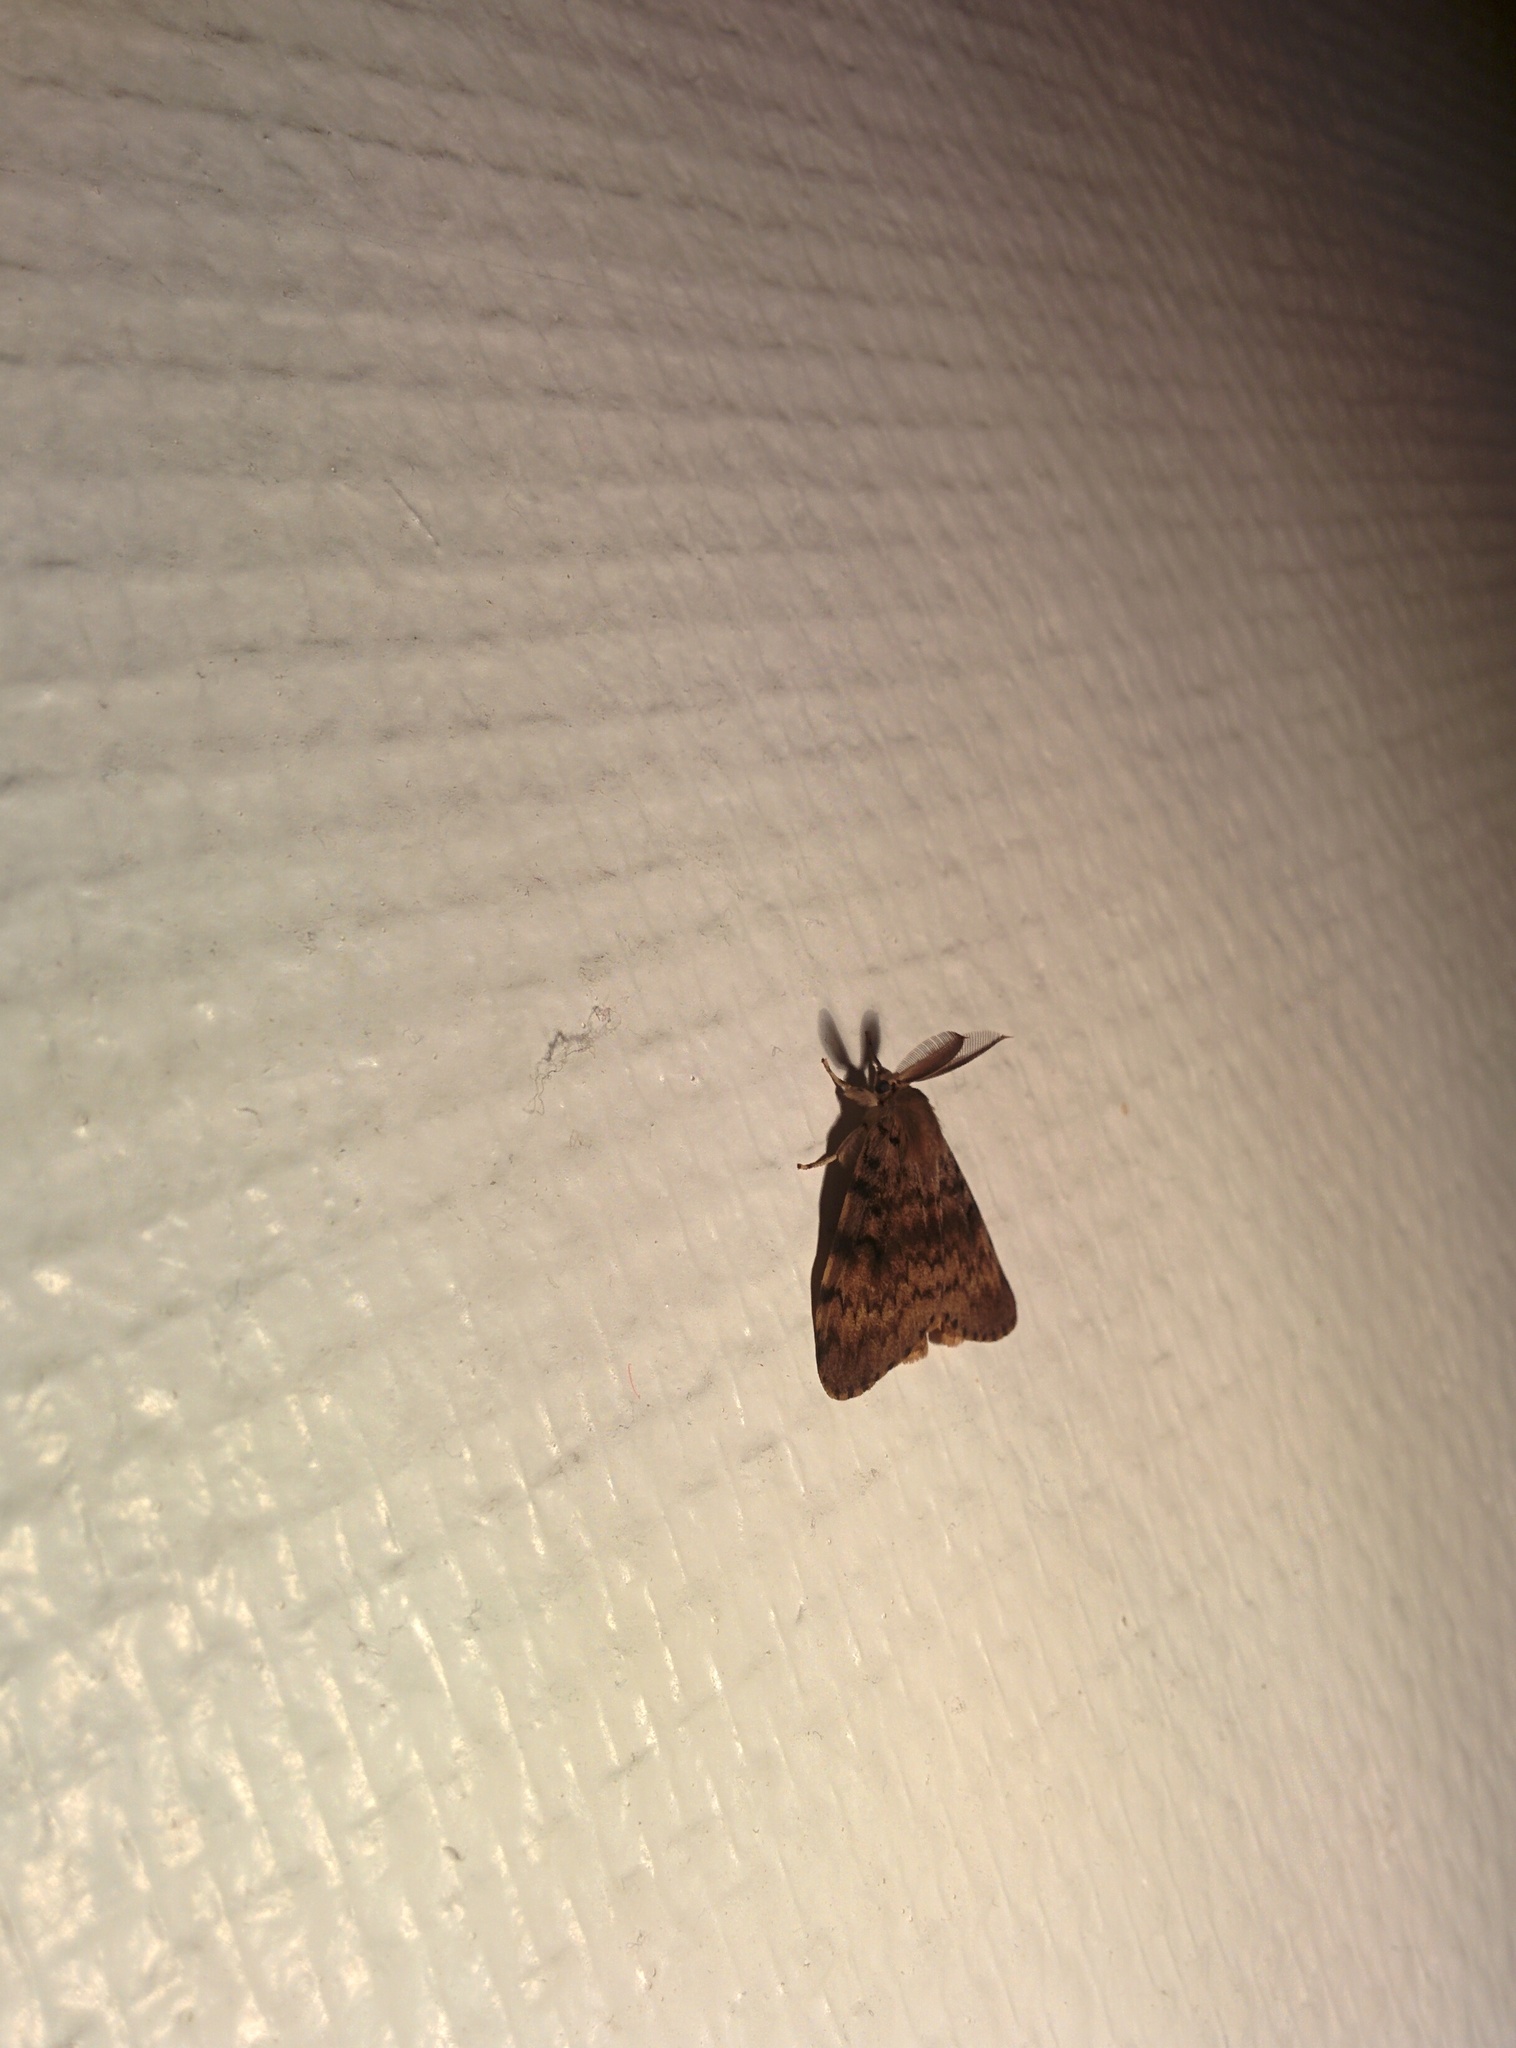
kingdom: Animalia
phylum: Arthropoda
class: Insecta
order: Lepidoptera
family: Erebidae
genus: Lymantria
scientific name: Lymantria dispar
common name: Gypsy moth
